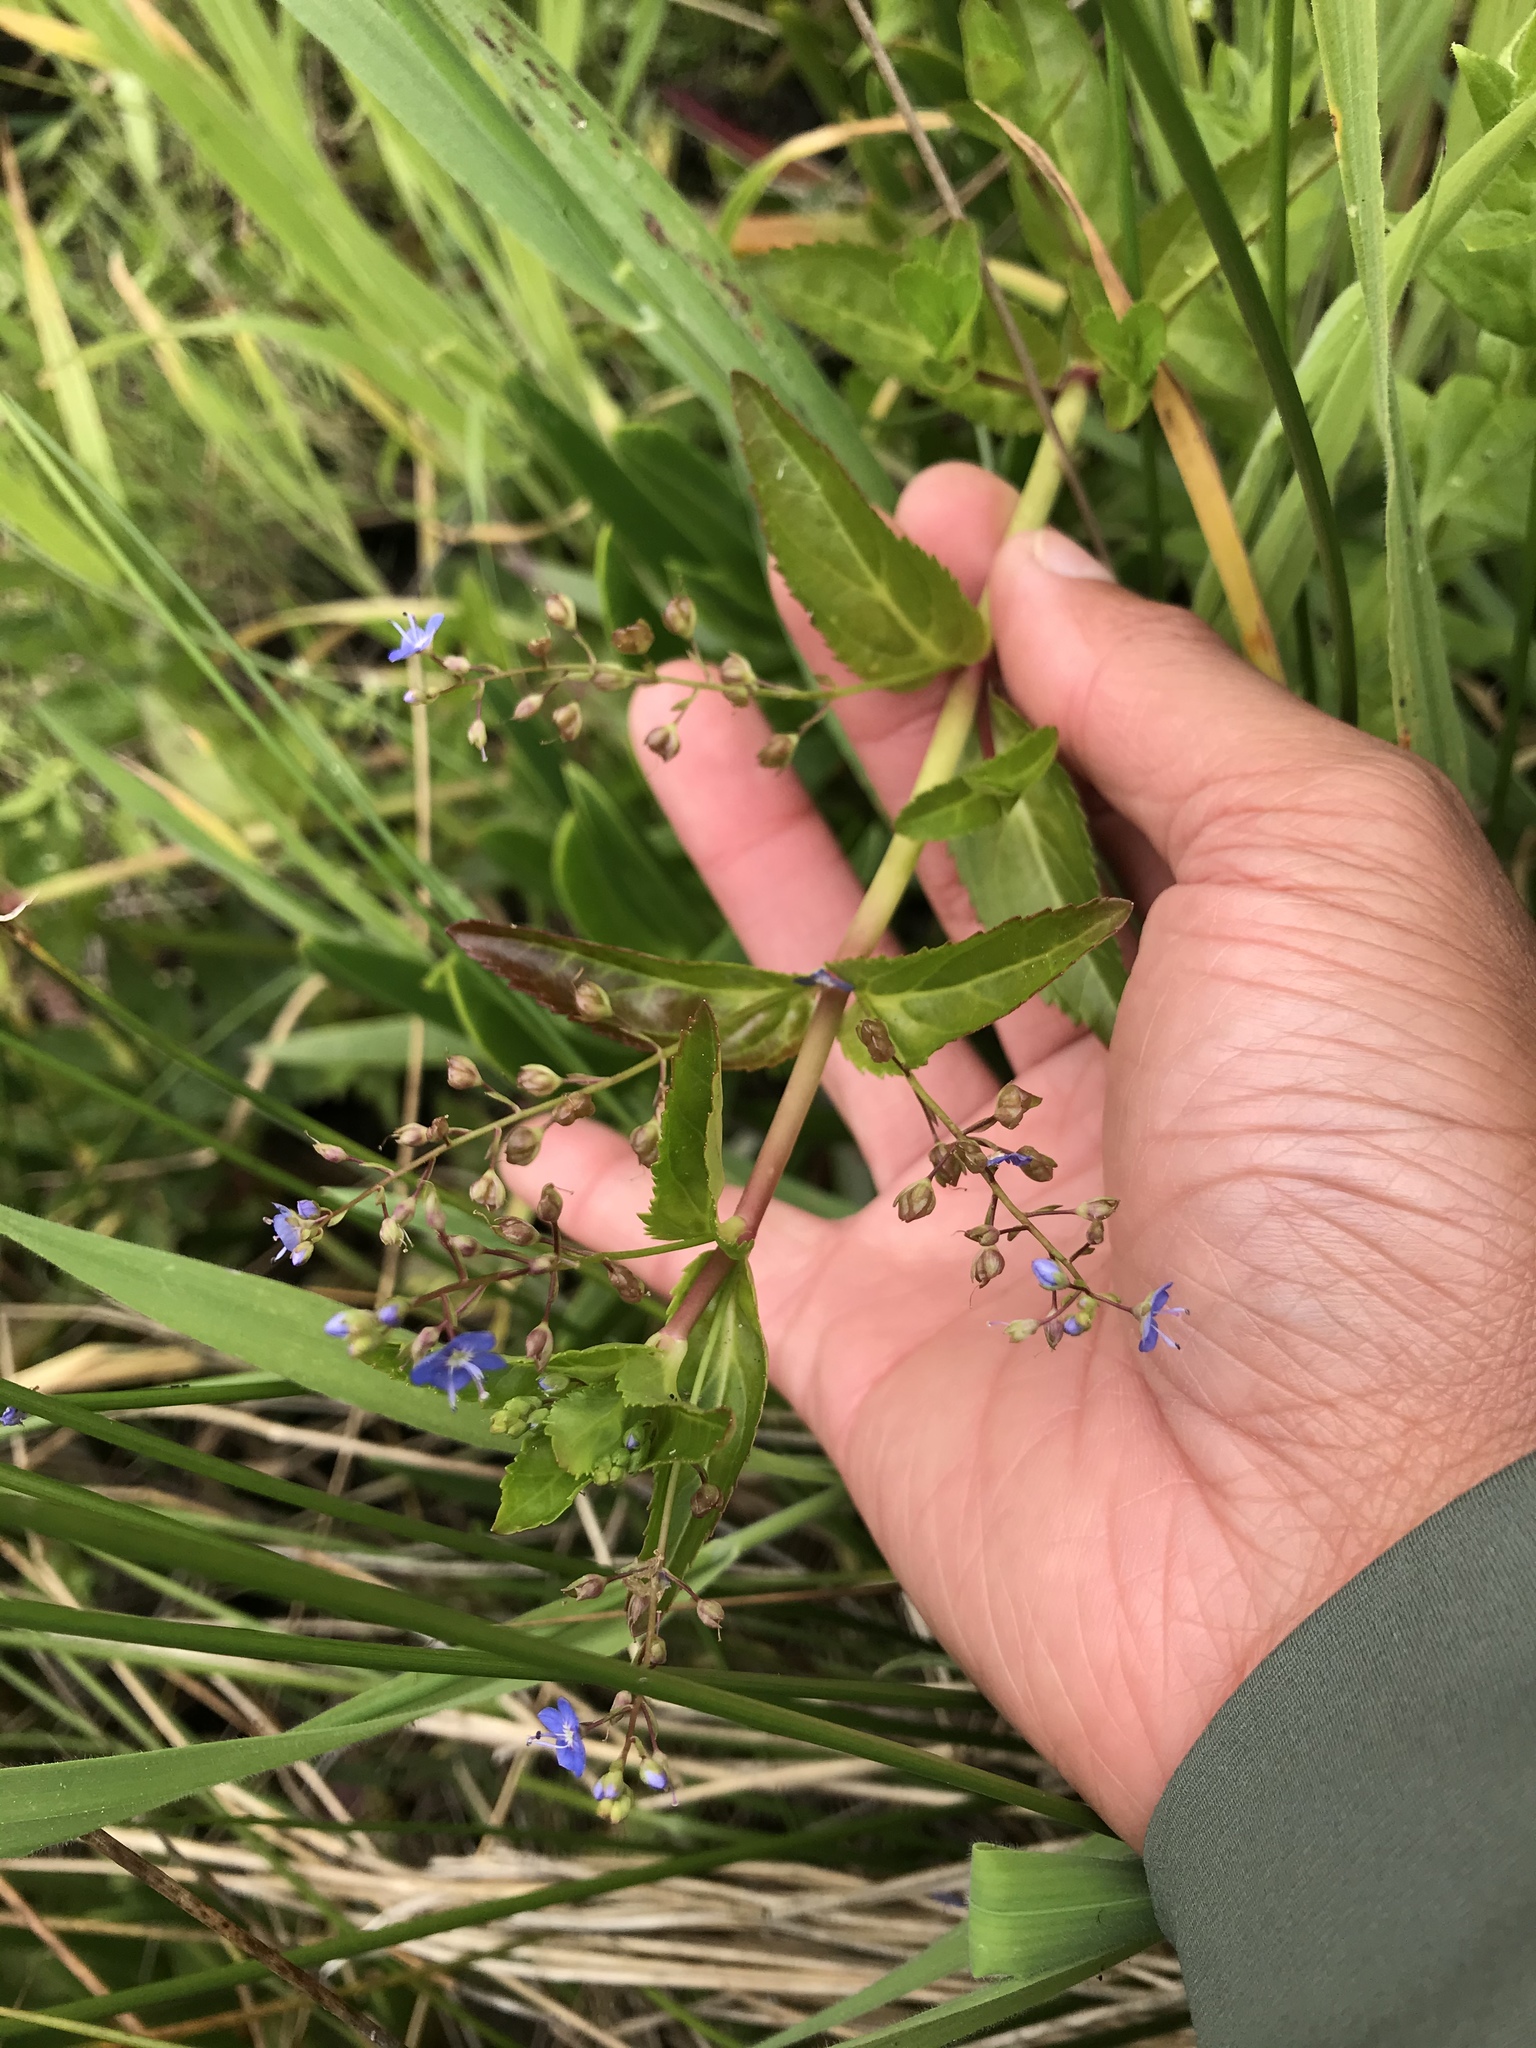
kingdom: Plantae
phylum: Tracheophyta
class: Magnoliopsida
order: Lamiales
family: Plantaginaceae
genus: Veronica
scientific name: Veronica americana
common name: American brooklime
